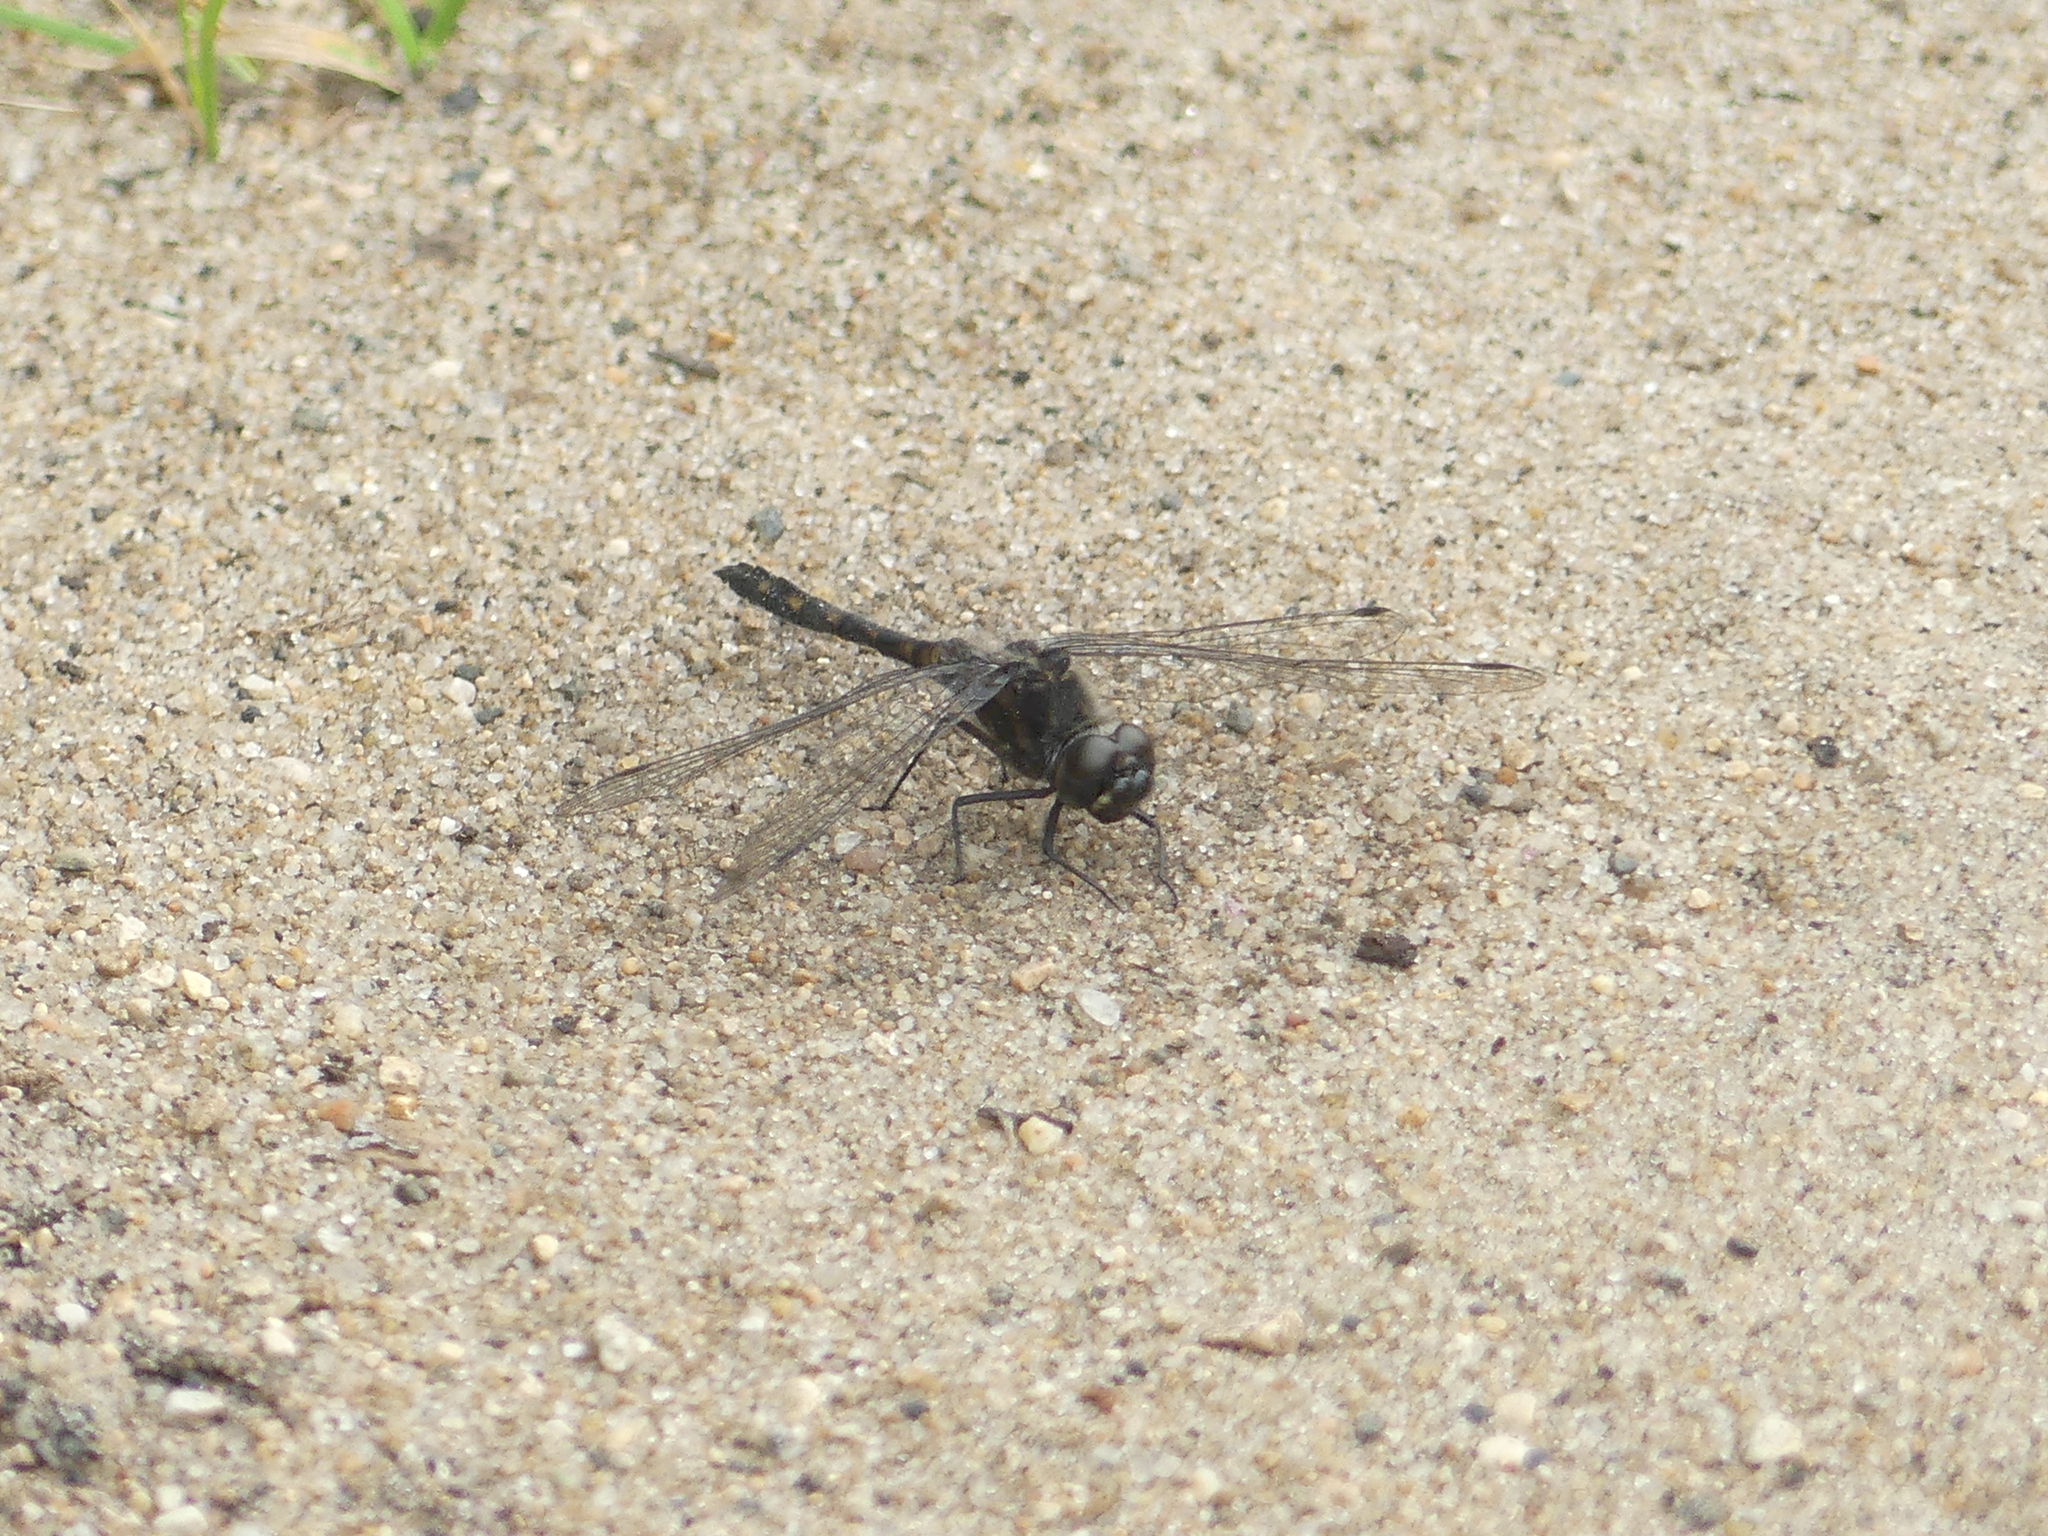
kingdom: Animalia
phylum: Arthropoda
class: Insecta
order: Odonata
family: Libellulidae
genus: Sympetrum
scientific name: Sympetrum danae
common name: Black darter
